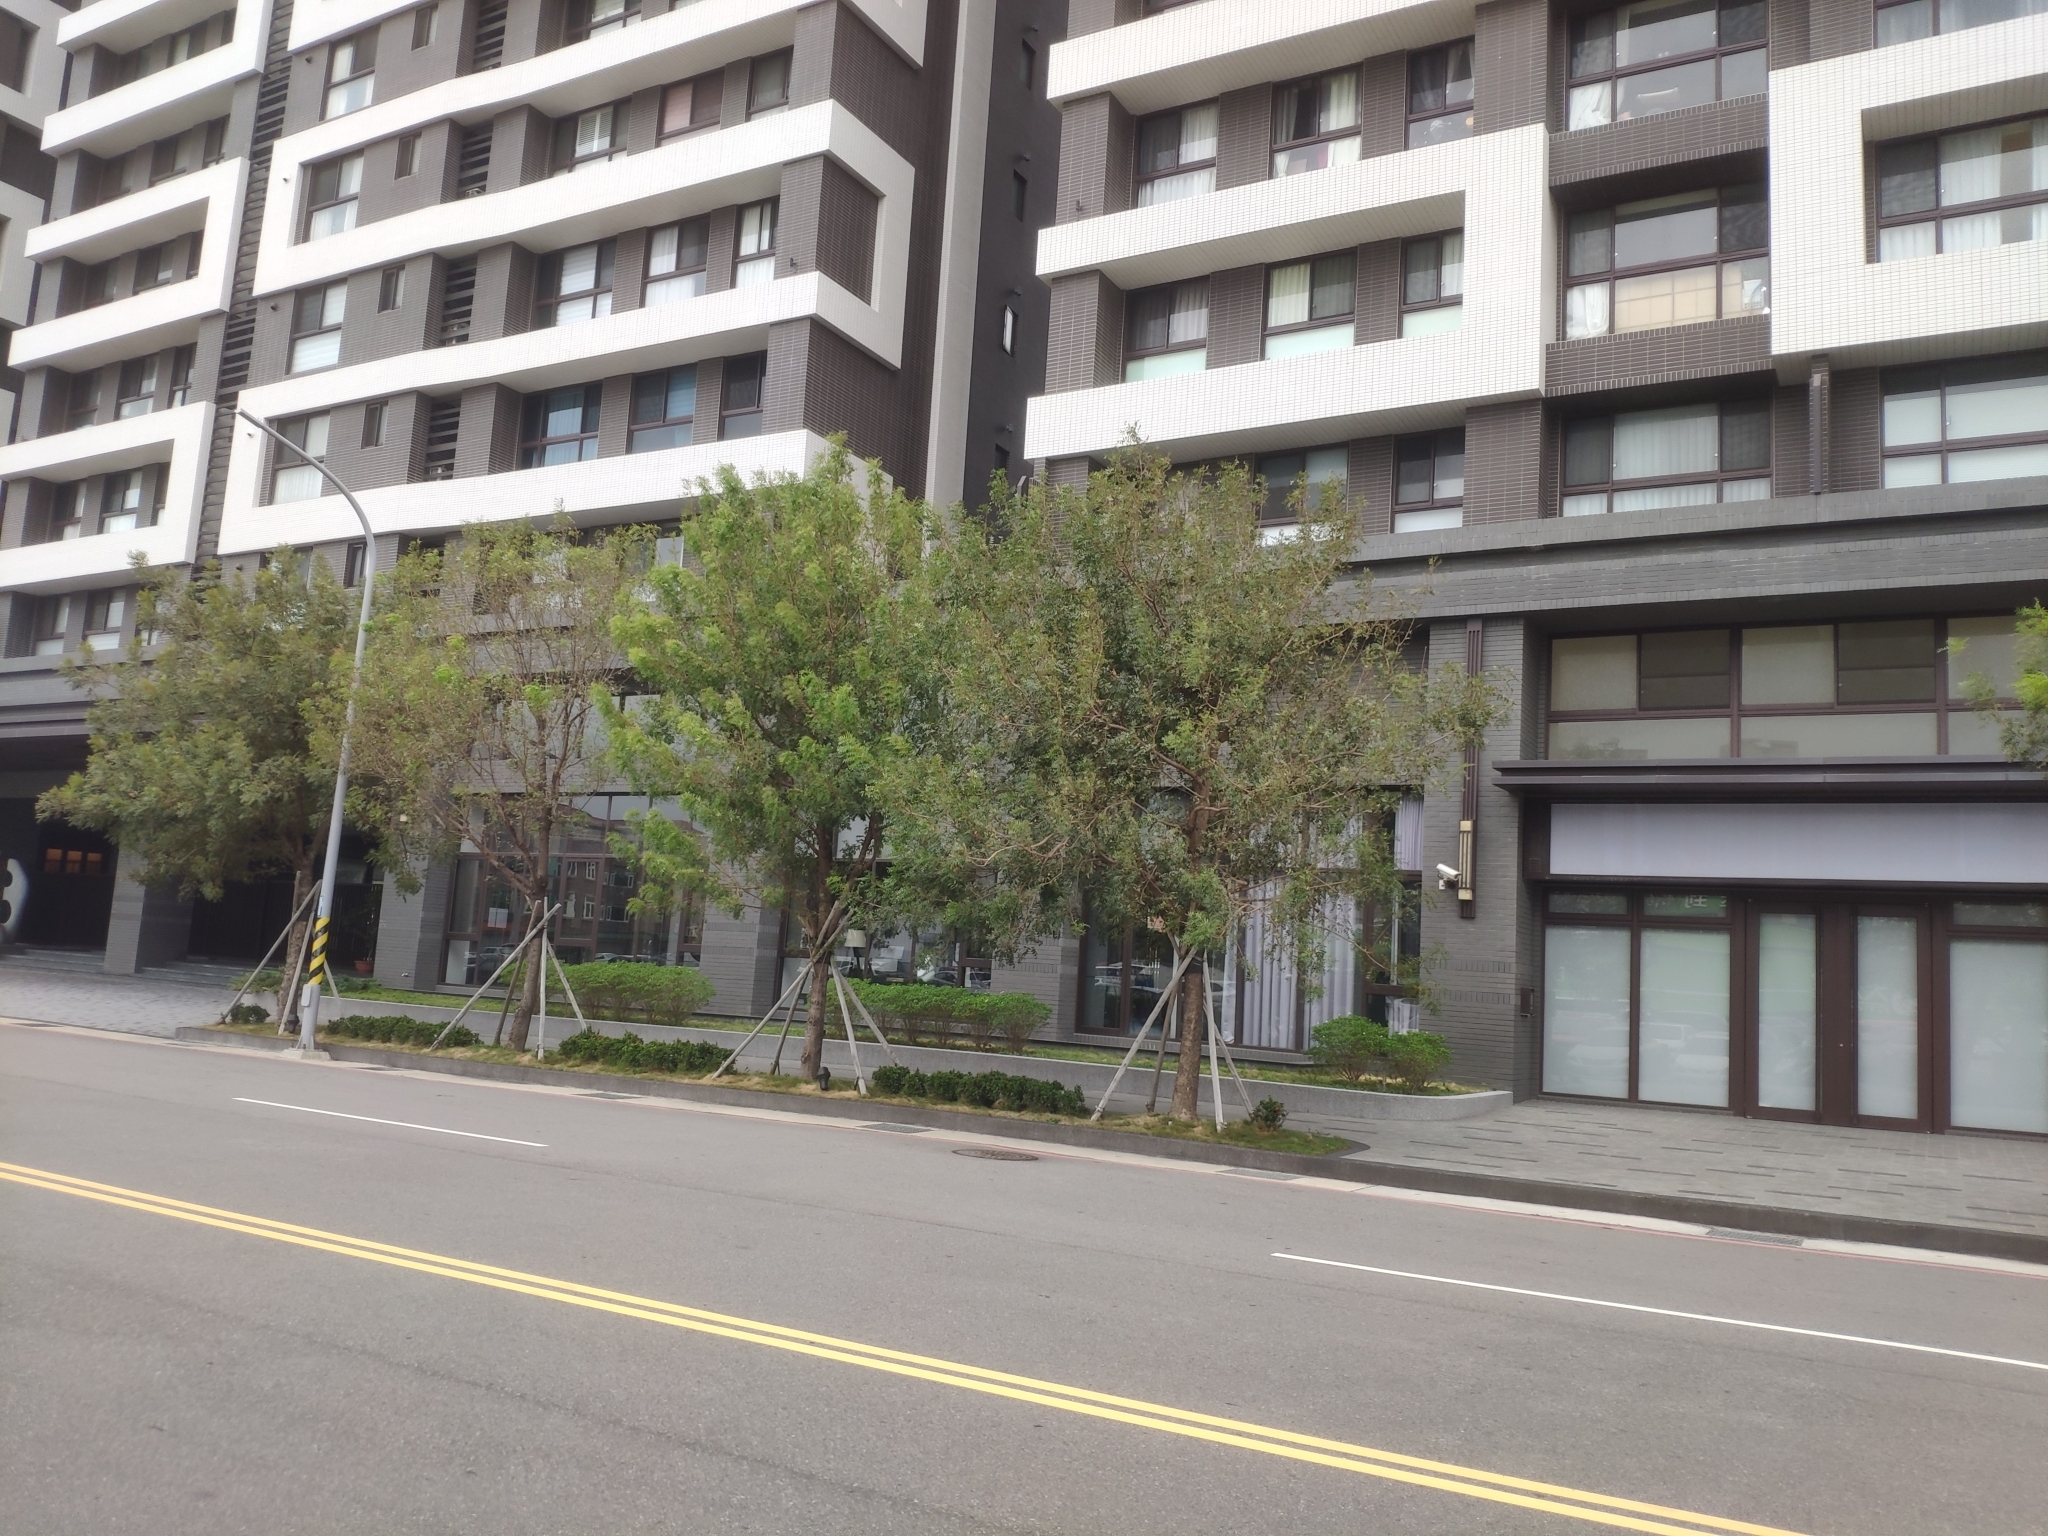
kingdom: Animalia
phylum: Chordata
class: Aves
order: Columbiformes
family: Columbidae
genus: Streptopelia
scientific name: Streptopelia orientalis
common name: Oriental turtle dove
